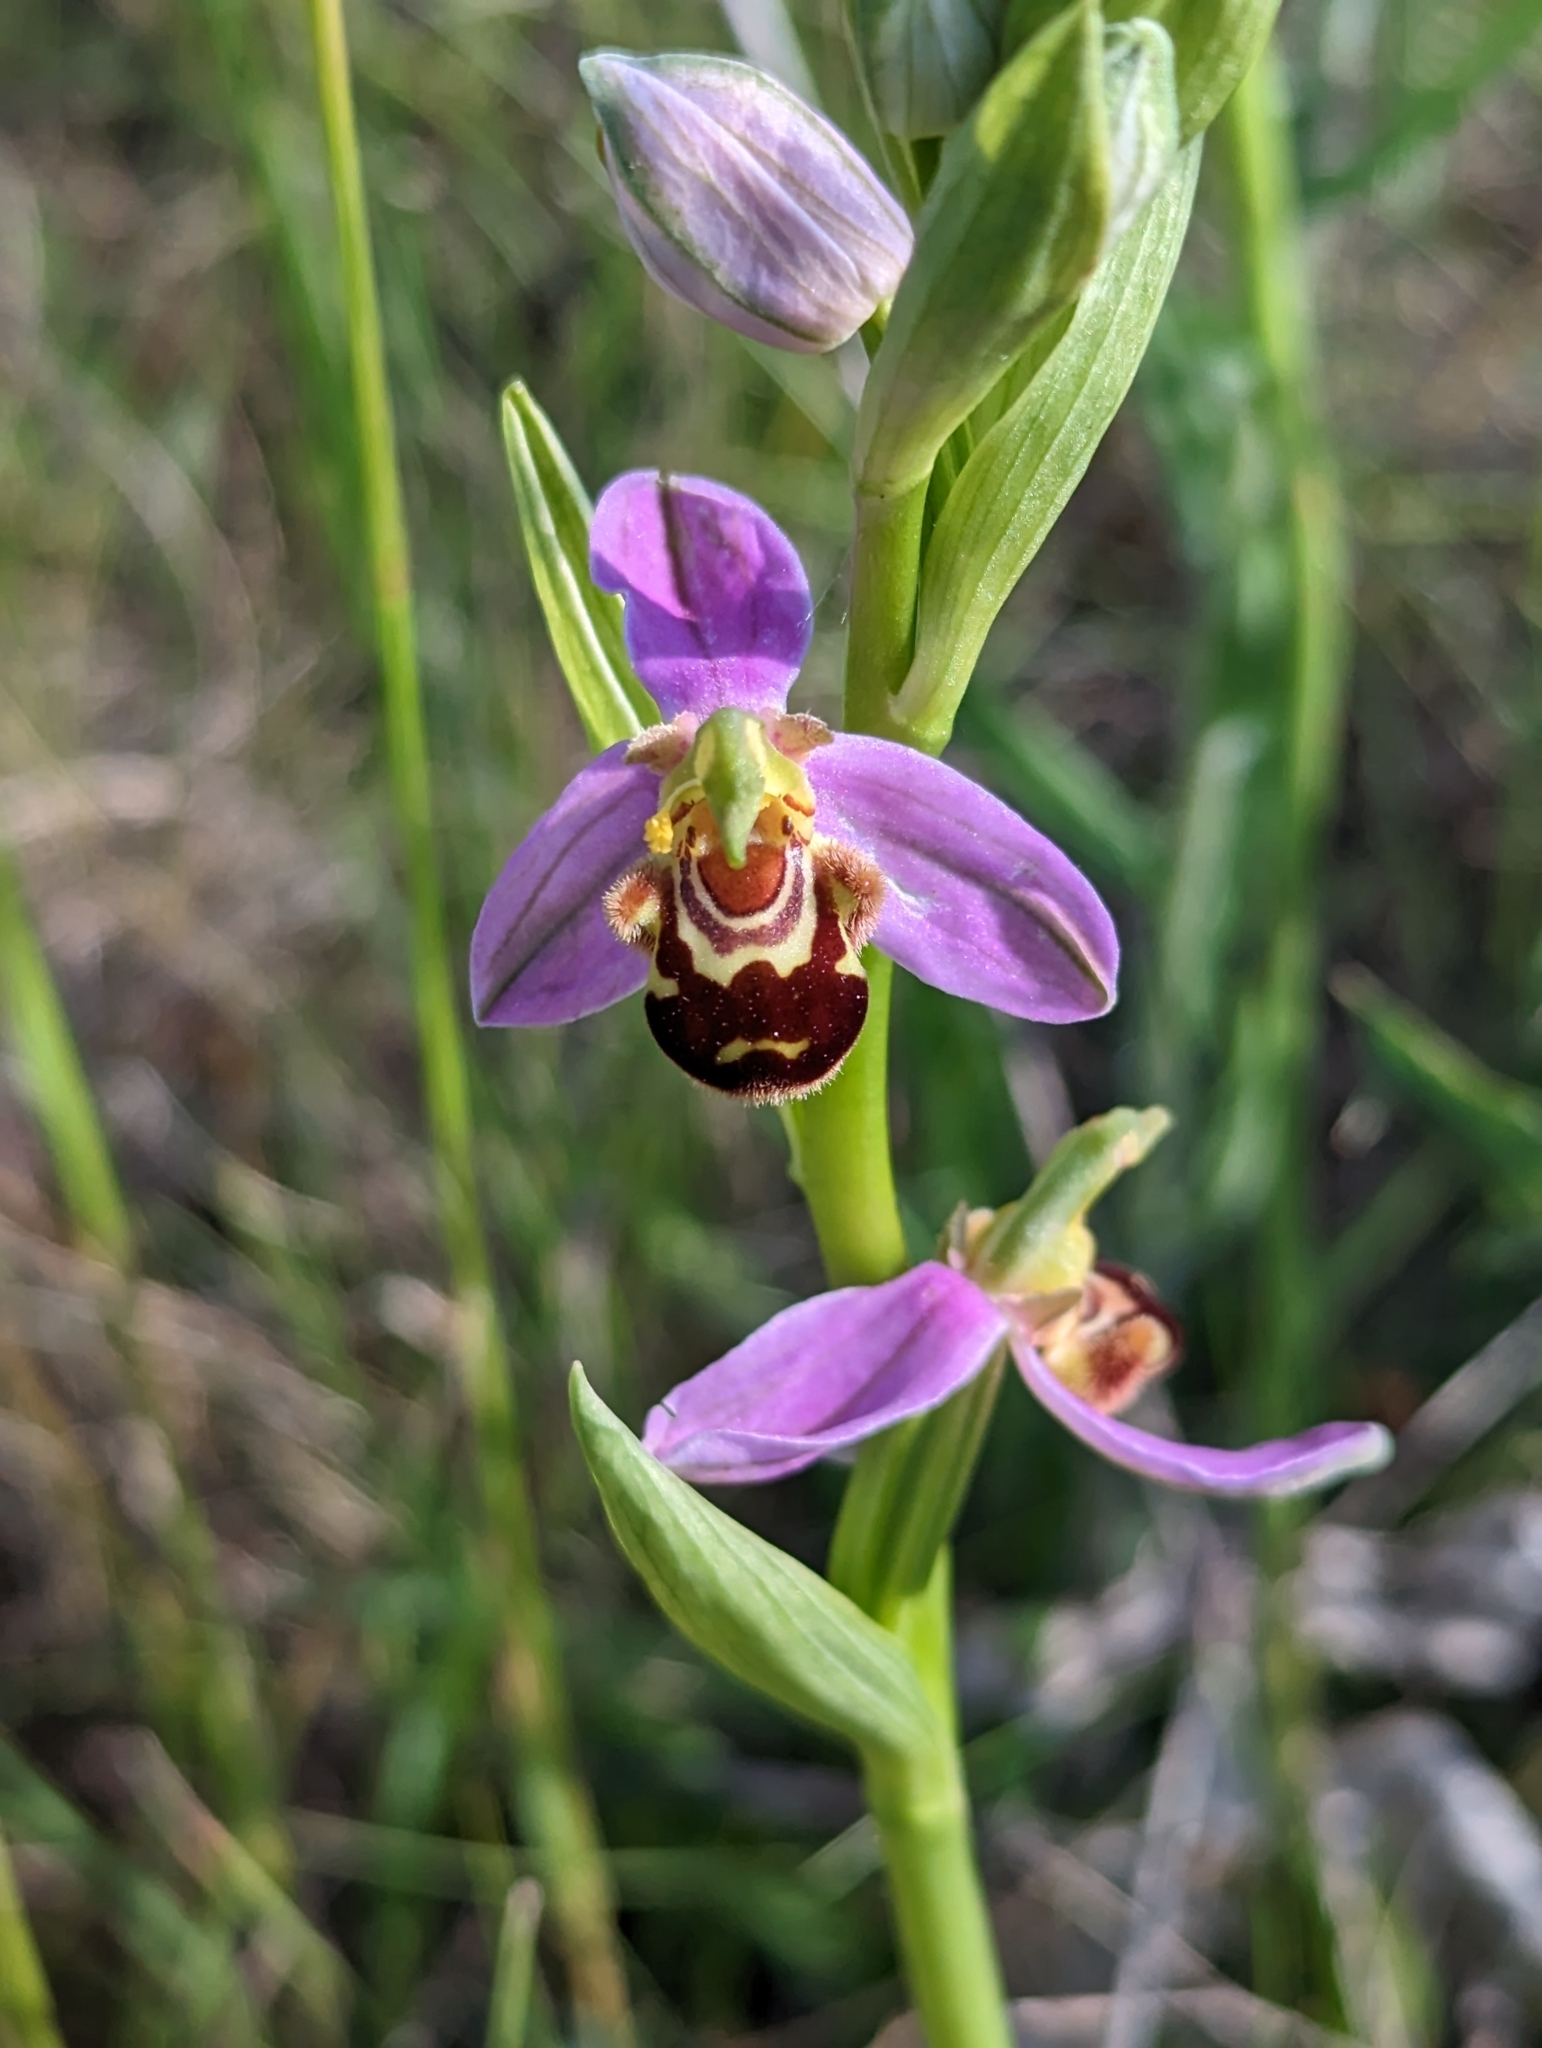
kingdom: Plantae
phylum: Tracheophyta
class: Liliopsida
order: Asparagales
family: Orchidaceae
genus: Ophrys
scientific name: Ophrys apifera
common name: Bee orchid
